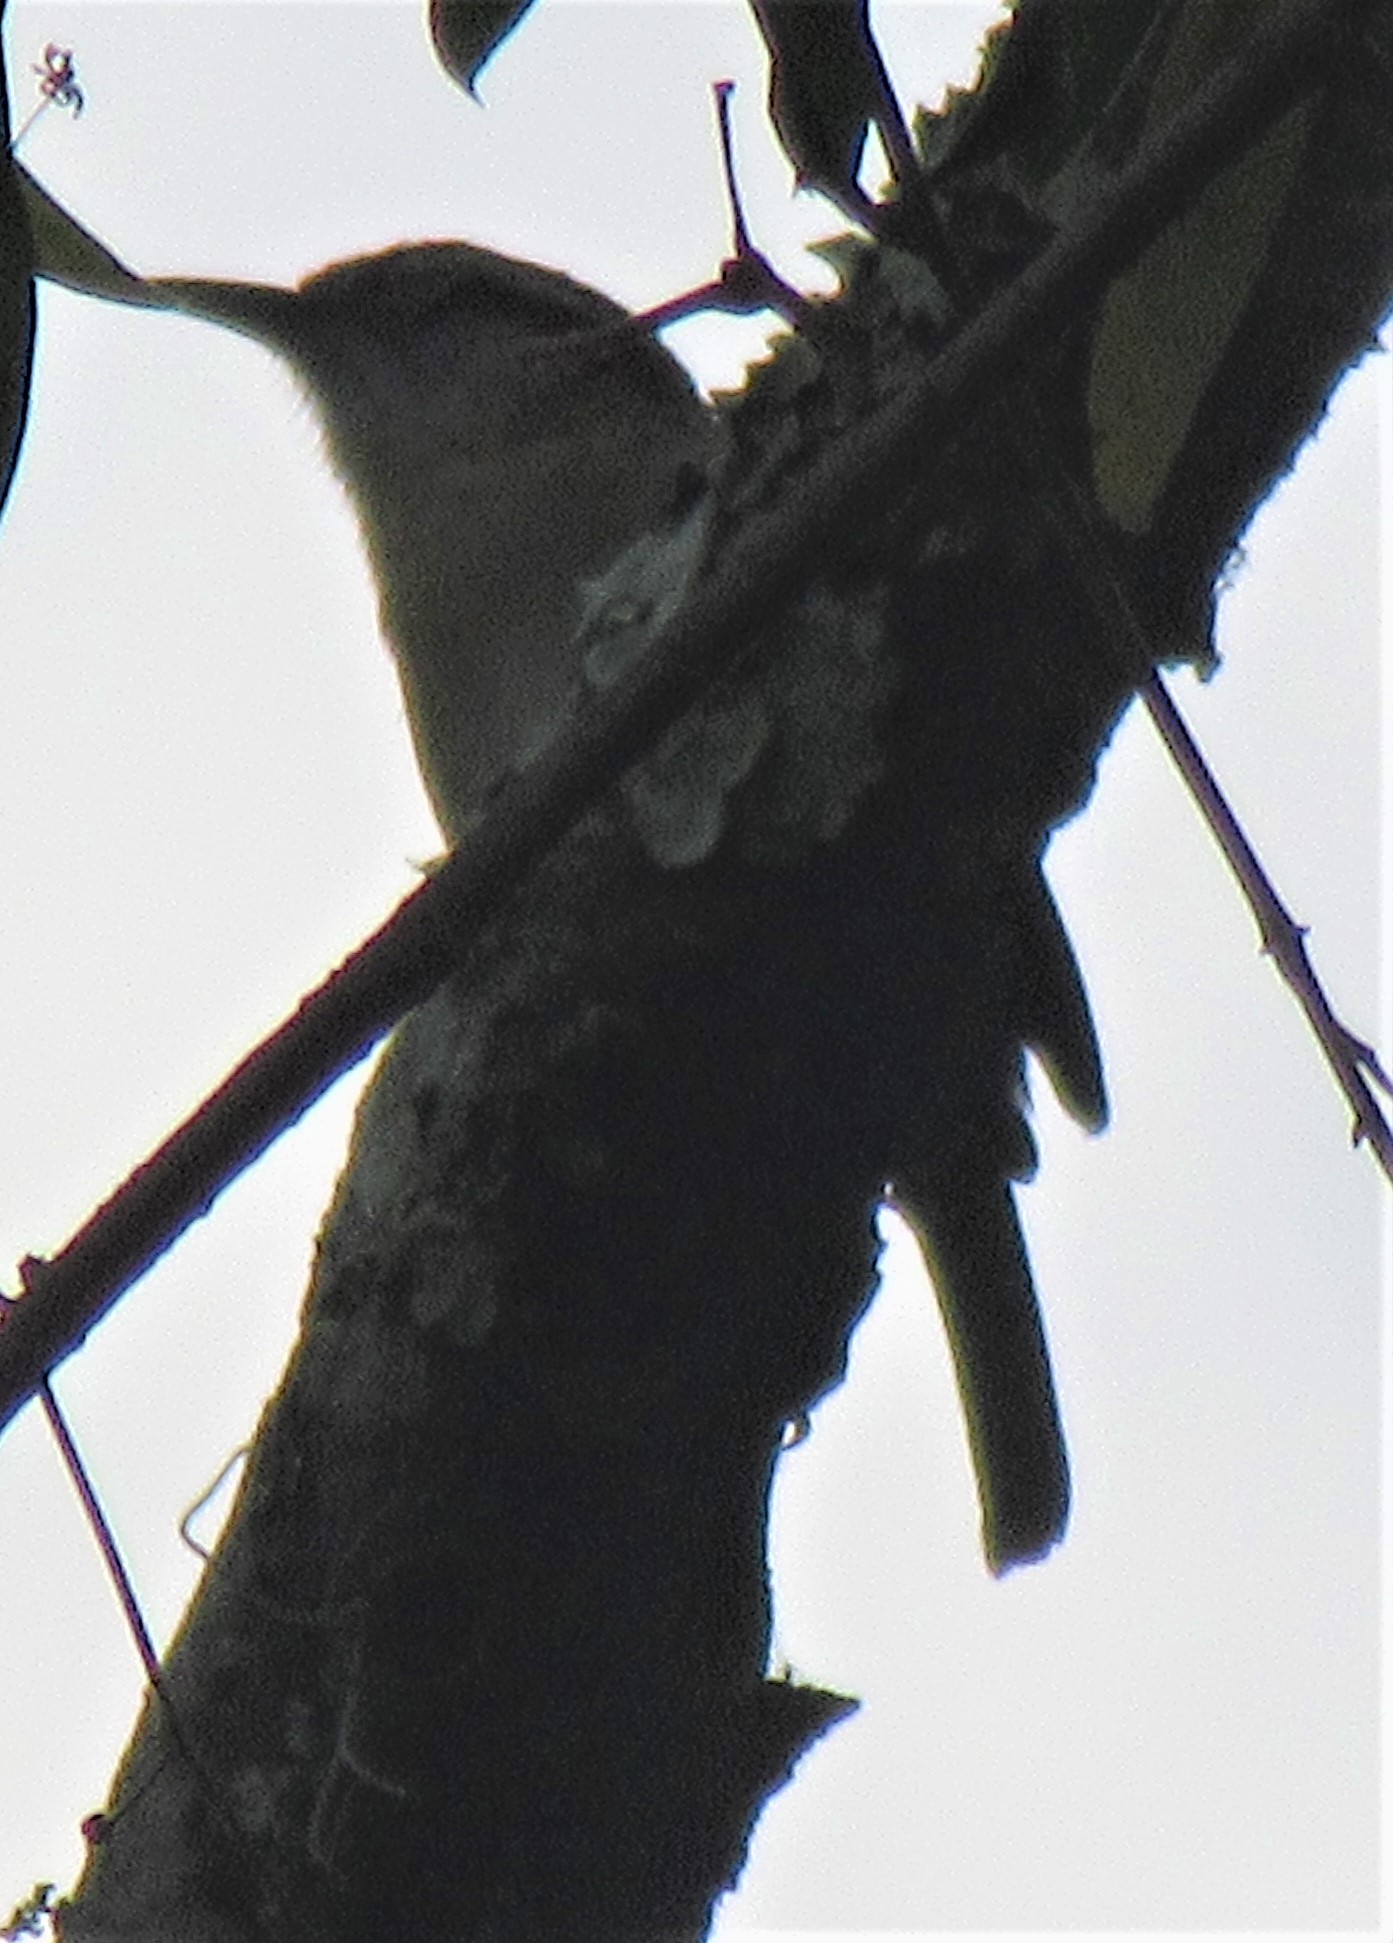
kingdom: Animalia
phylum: Chordata
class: Aves
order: Passeriformes
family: Troglodytidae
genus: Thryothorus
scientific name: Thryothorus ludovicianus
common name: Carolina wren
